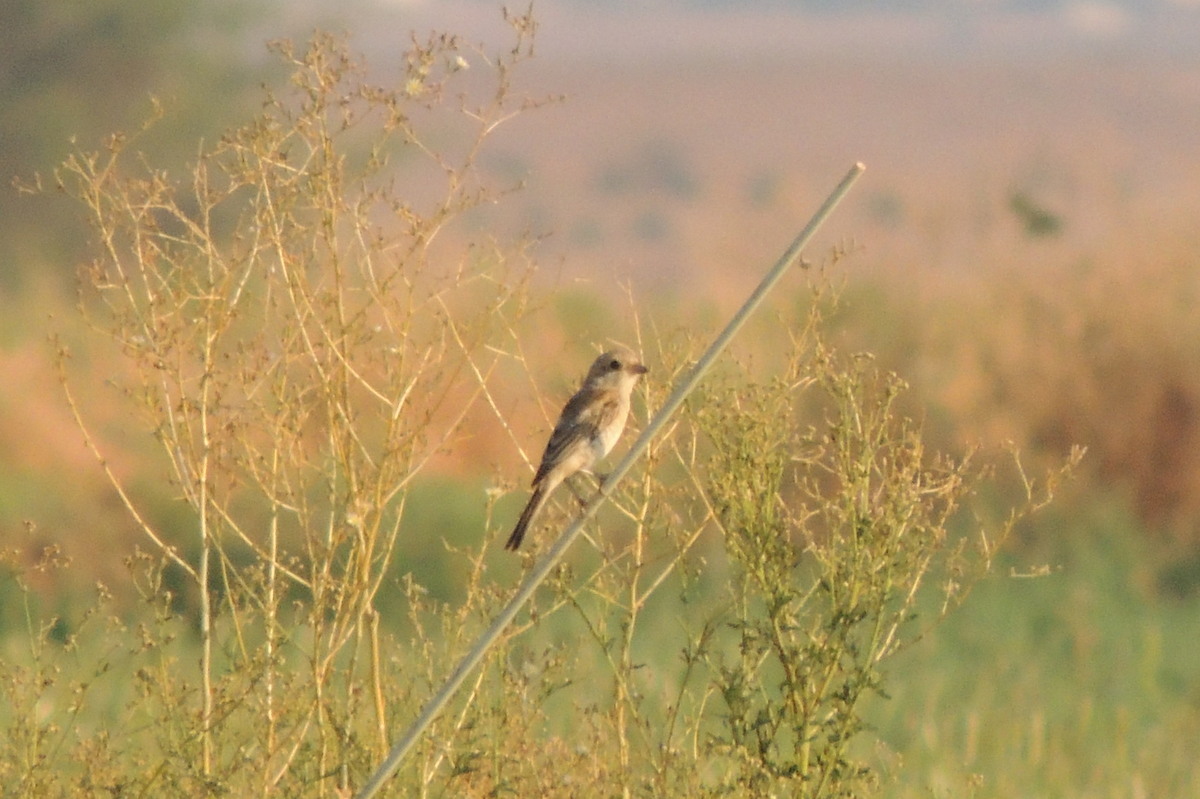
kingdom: Animalia
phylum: Chordata
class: Aves
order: Passeriformes
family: Laniidae
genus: Lanius
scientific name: Lanius senator
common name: Woodchat shrike
